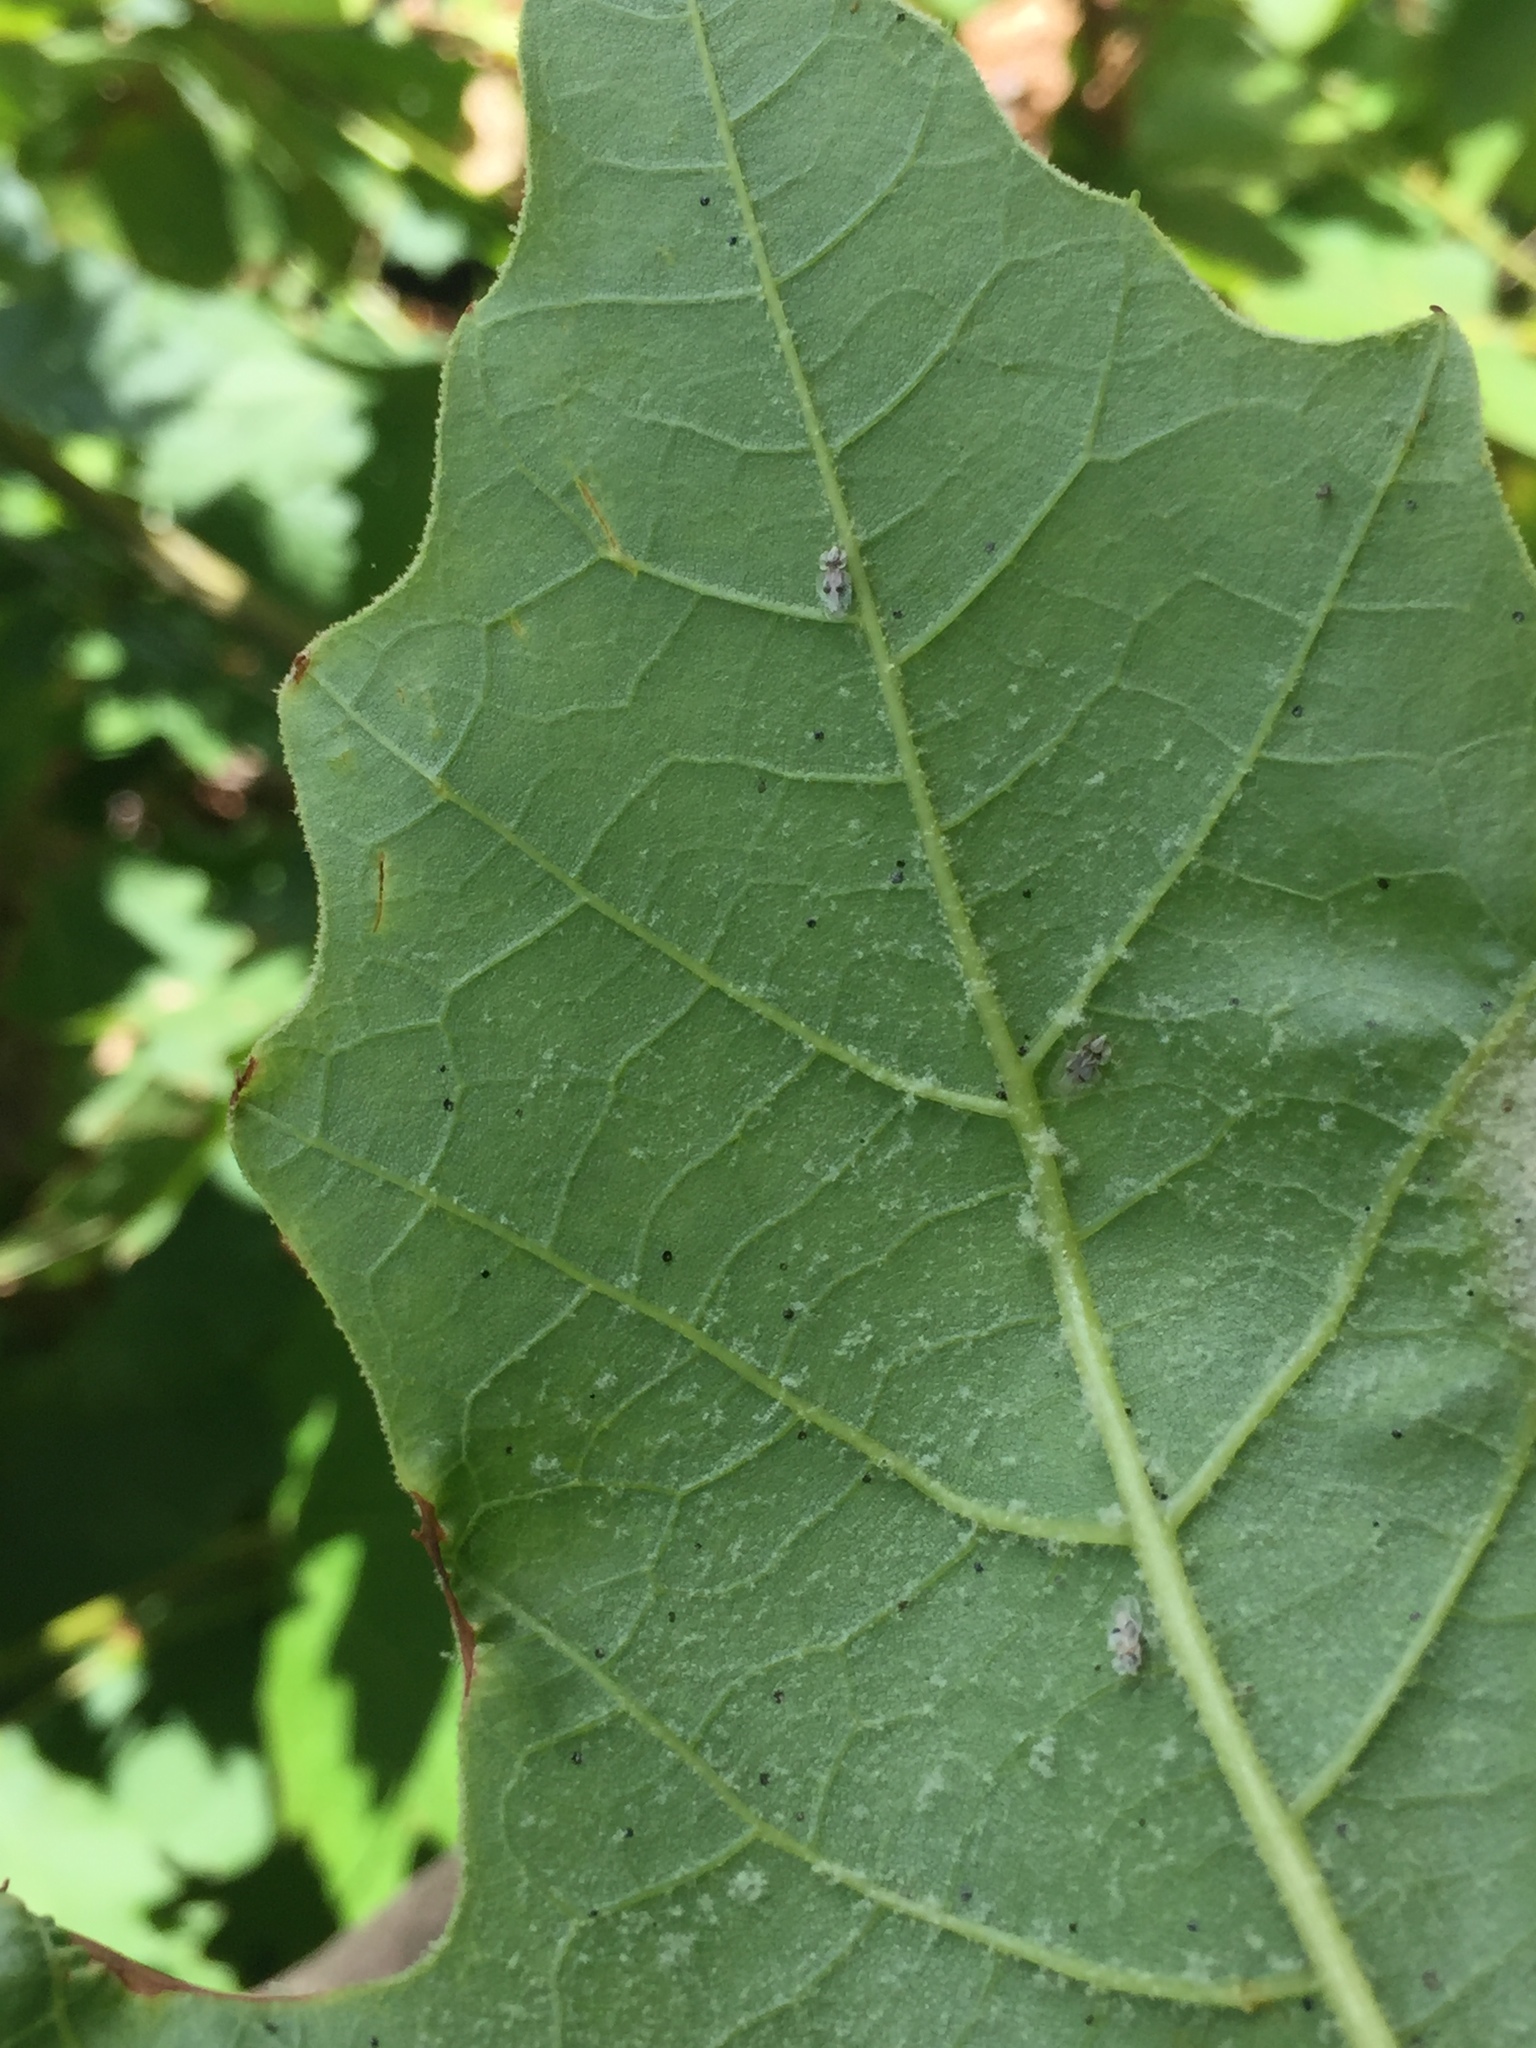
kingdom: Animalia
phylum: Arthropoda
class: Insecta
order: Hemiptera
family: Tingidae
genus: Corythucha
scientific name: Corythucha ciliata
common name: Sycamore lace bug
